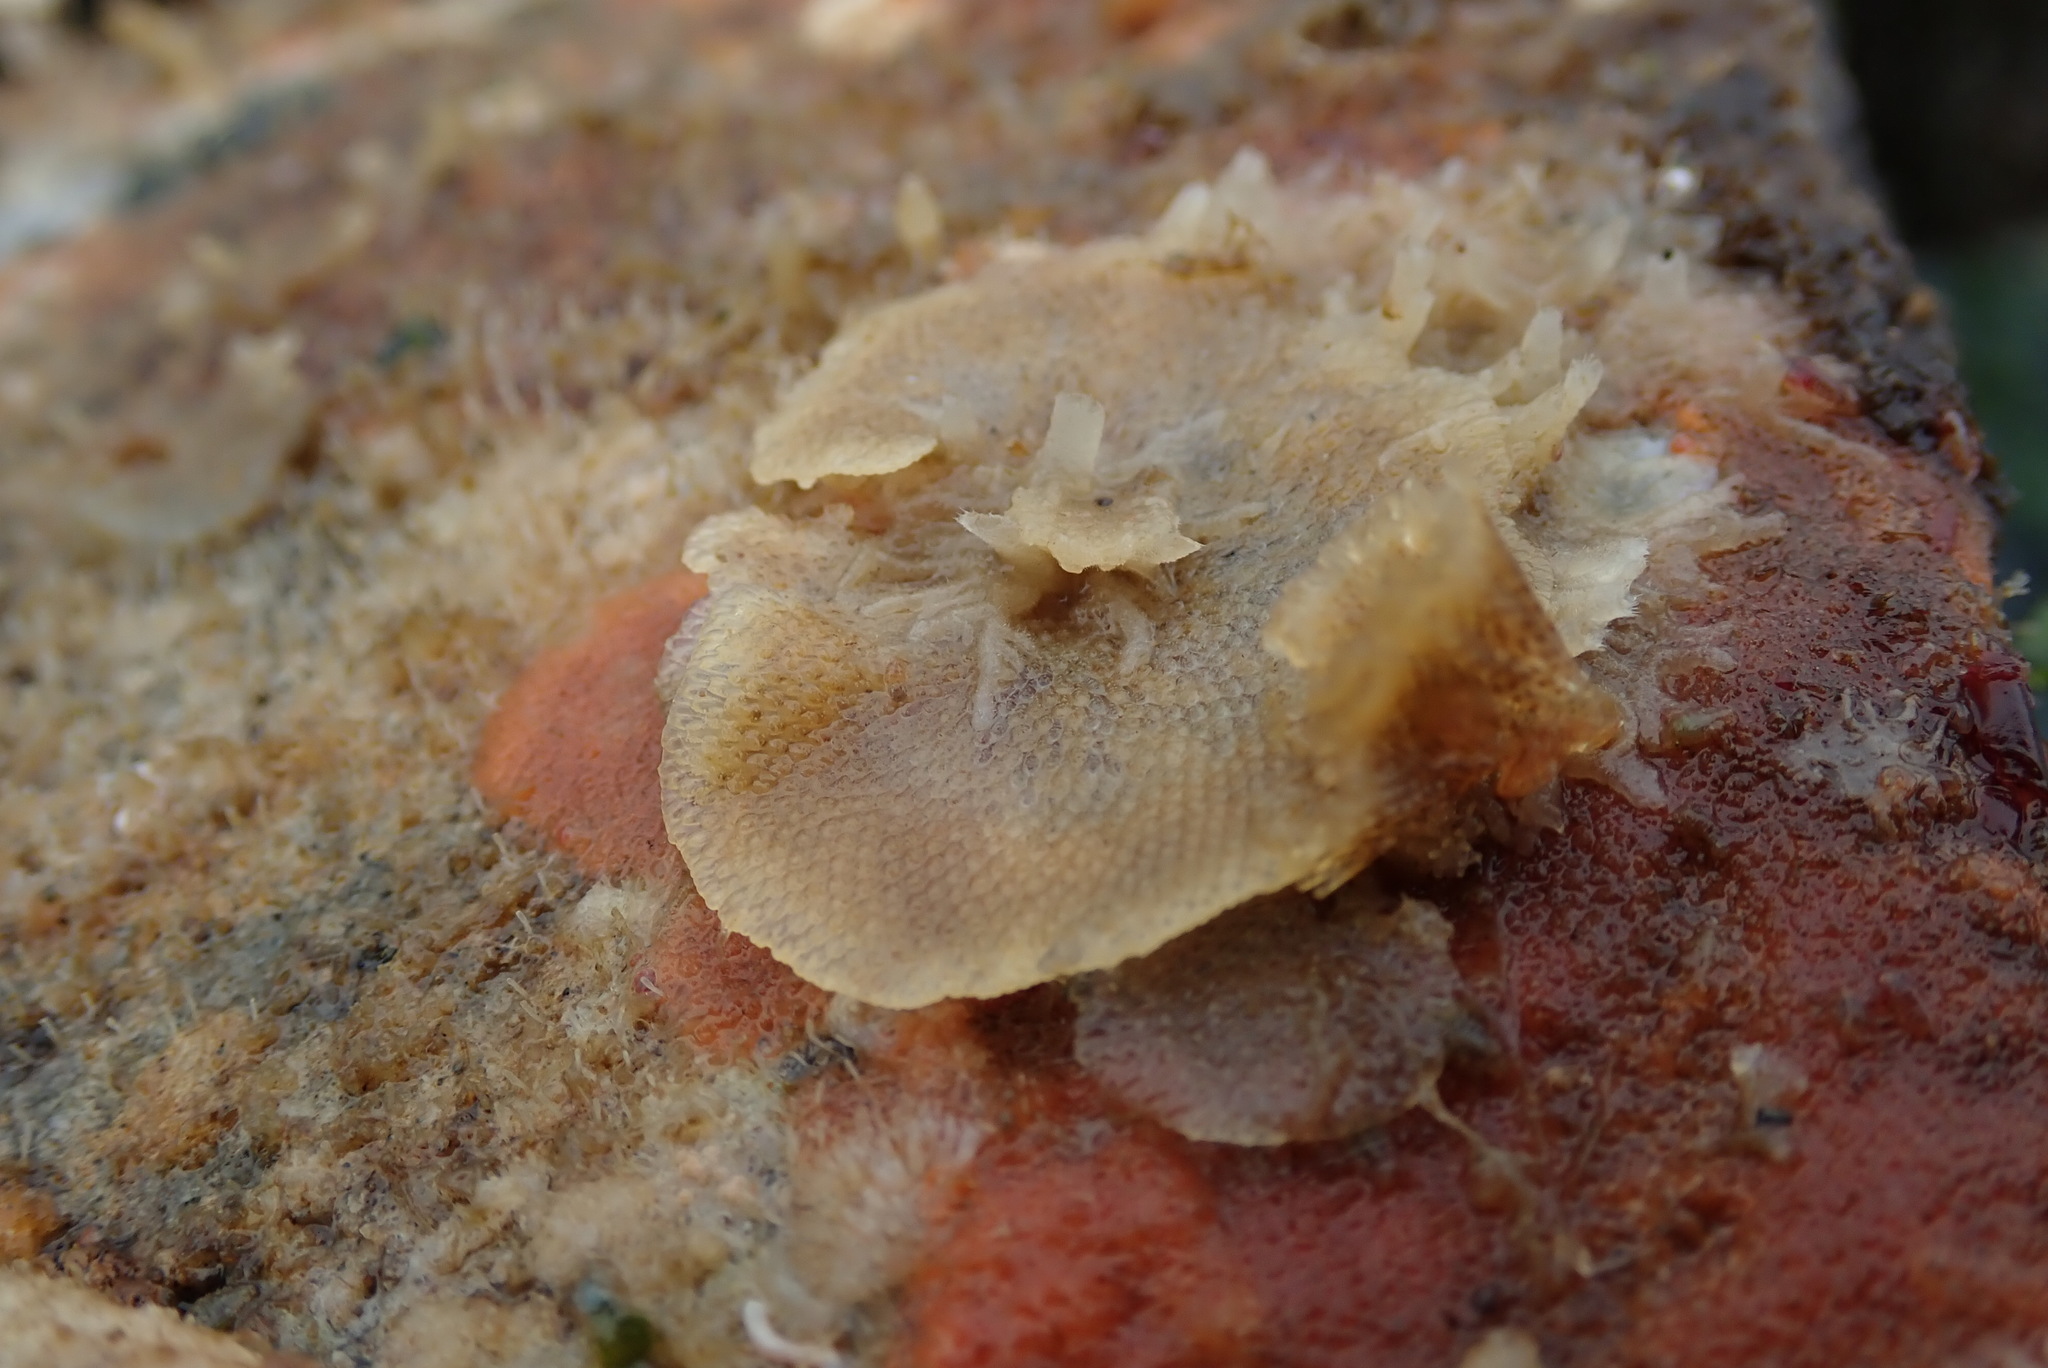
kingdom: Animalia
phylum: Bryozoa
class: Gymnolaemata
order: Cheilostomatida
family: Bugulidae
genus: Dendrobeania
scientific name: Dendrobeania lichenoides
